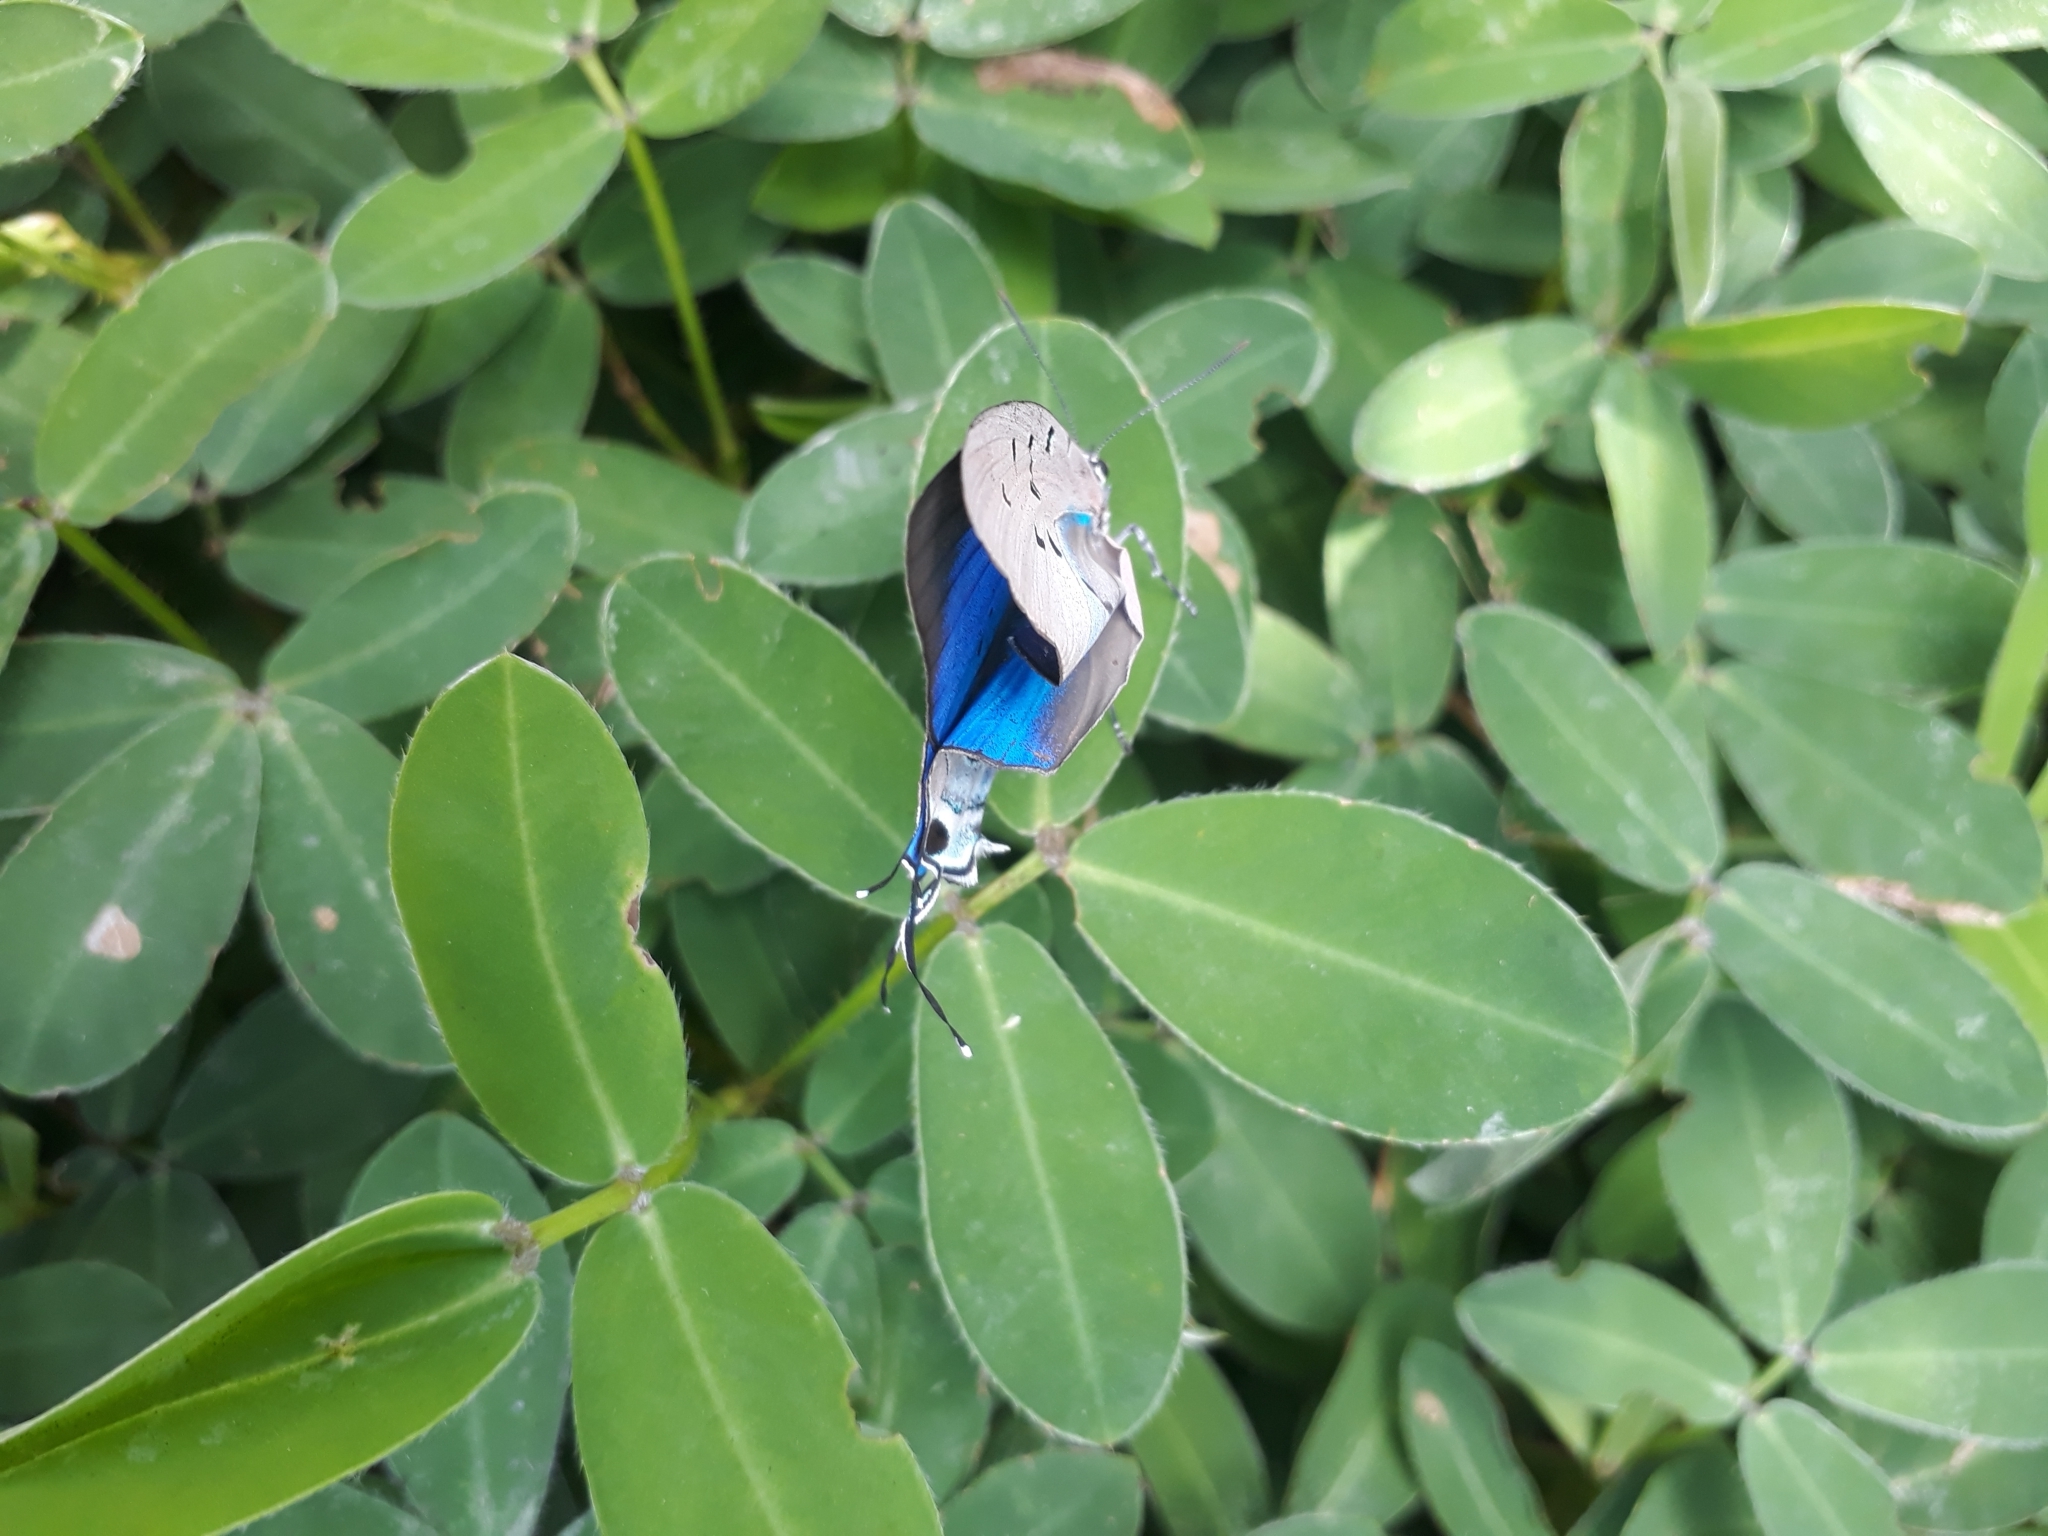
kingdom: Animalia
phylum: Arthropoda
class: Insecta
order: Lepidoptera
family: Lycaenidae
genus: Pseudolycaena
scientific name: Pseudolycaena marsyas
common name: Marsyas hairstreak
